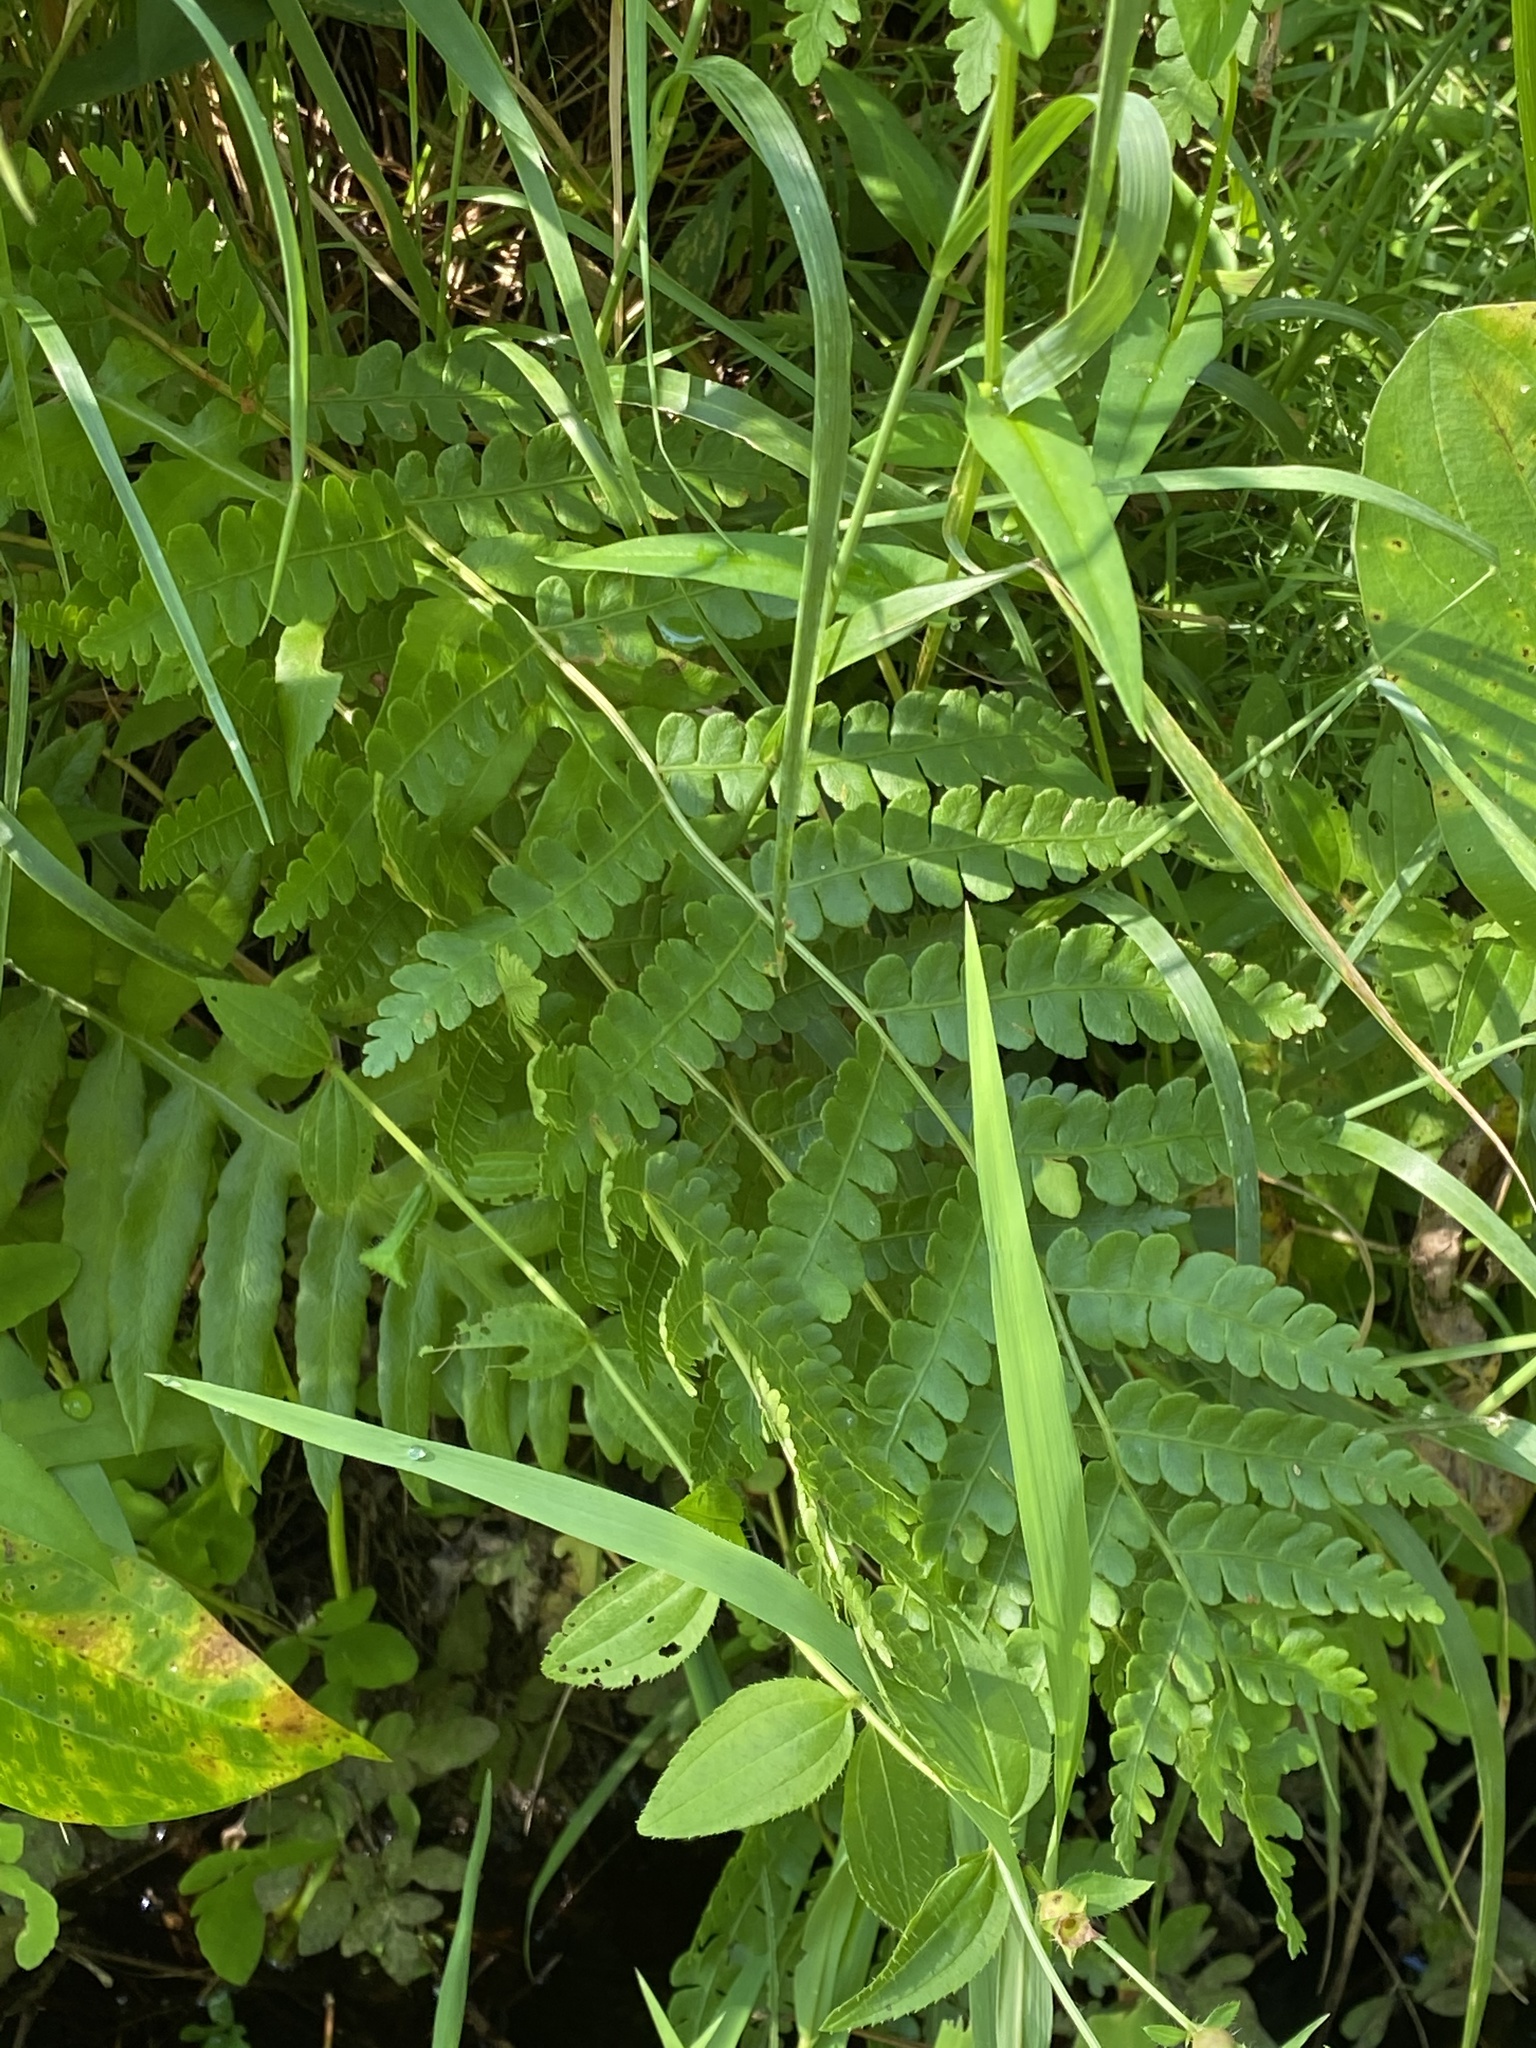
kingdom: Plantae
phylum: Tracheophyta
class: Polypodiopsida
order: Osmundales
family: Osmundaceae
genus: Osmundastrum
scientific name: Osmundastrum cinnamomeum
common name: Cinnamon fern
